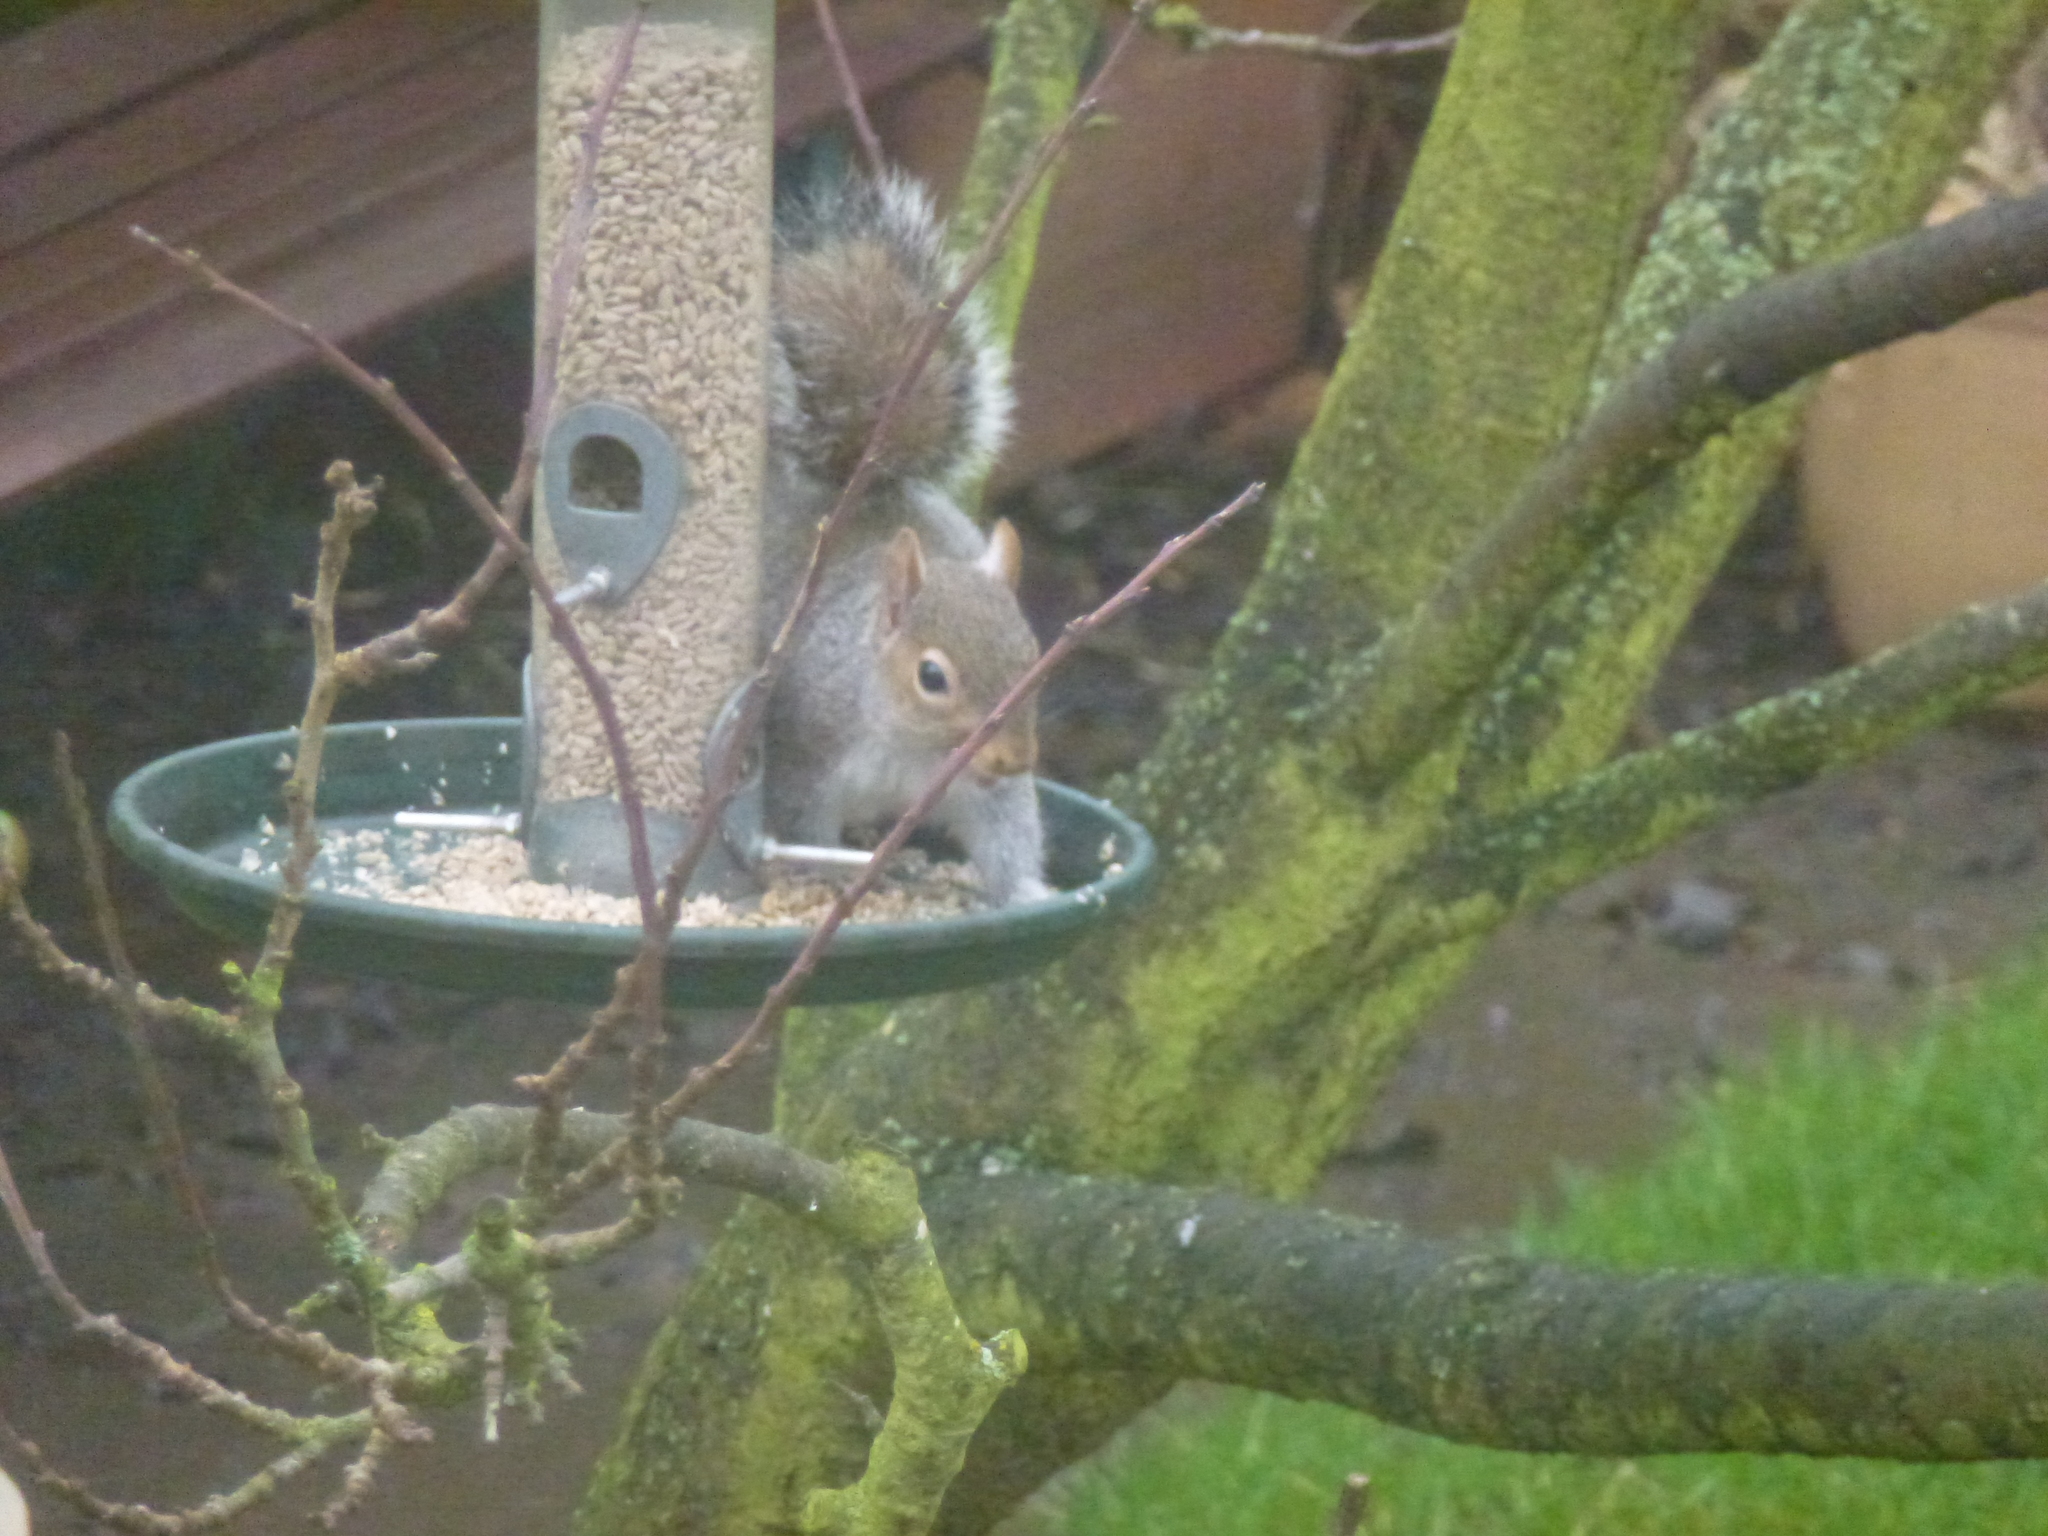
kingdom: Animalia
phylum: Chordata
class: Mammalia
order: Rodentia
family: Sciuridae
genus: Sciurus
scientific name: Sciurus carolinensis
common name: Eastern gray squirrel
